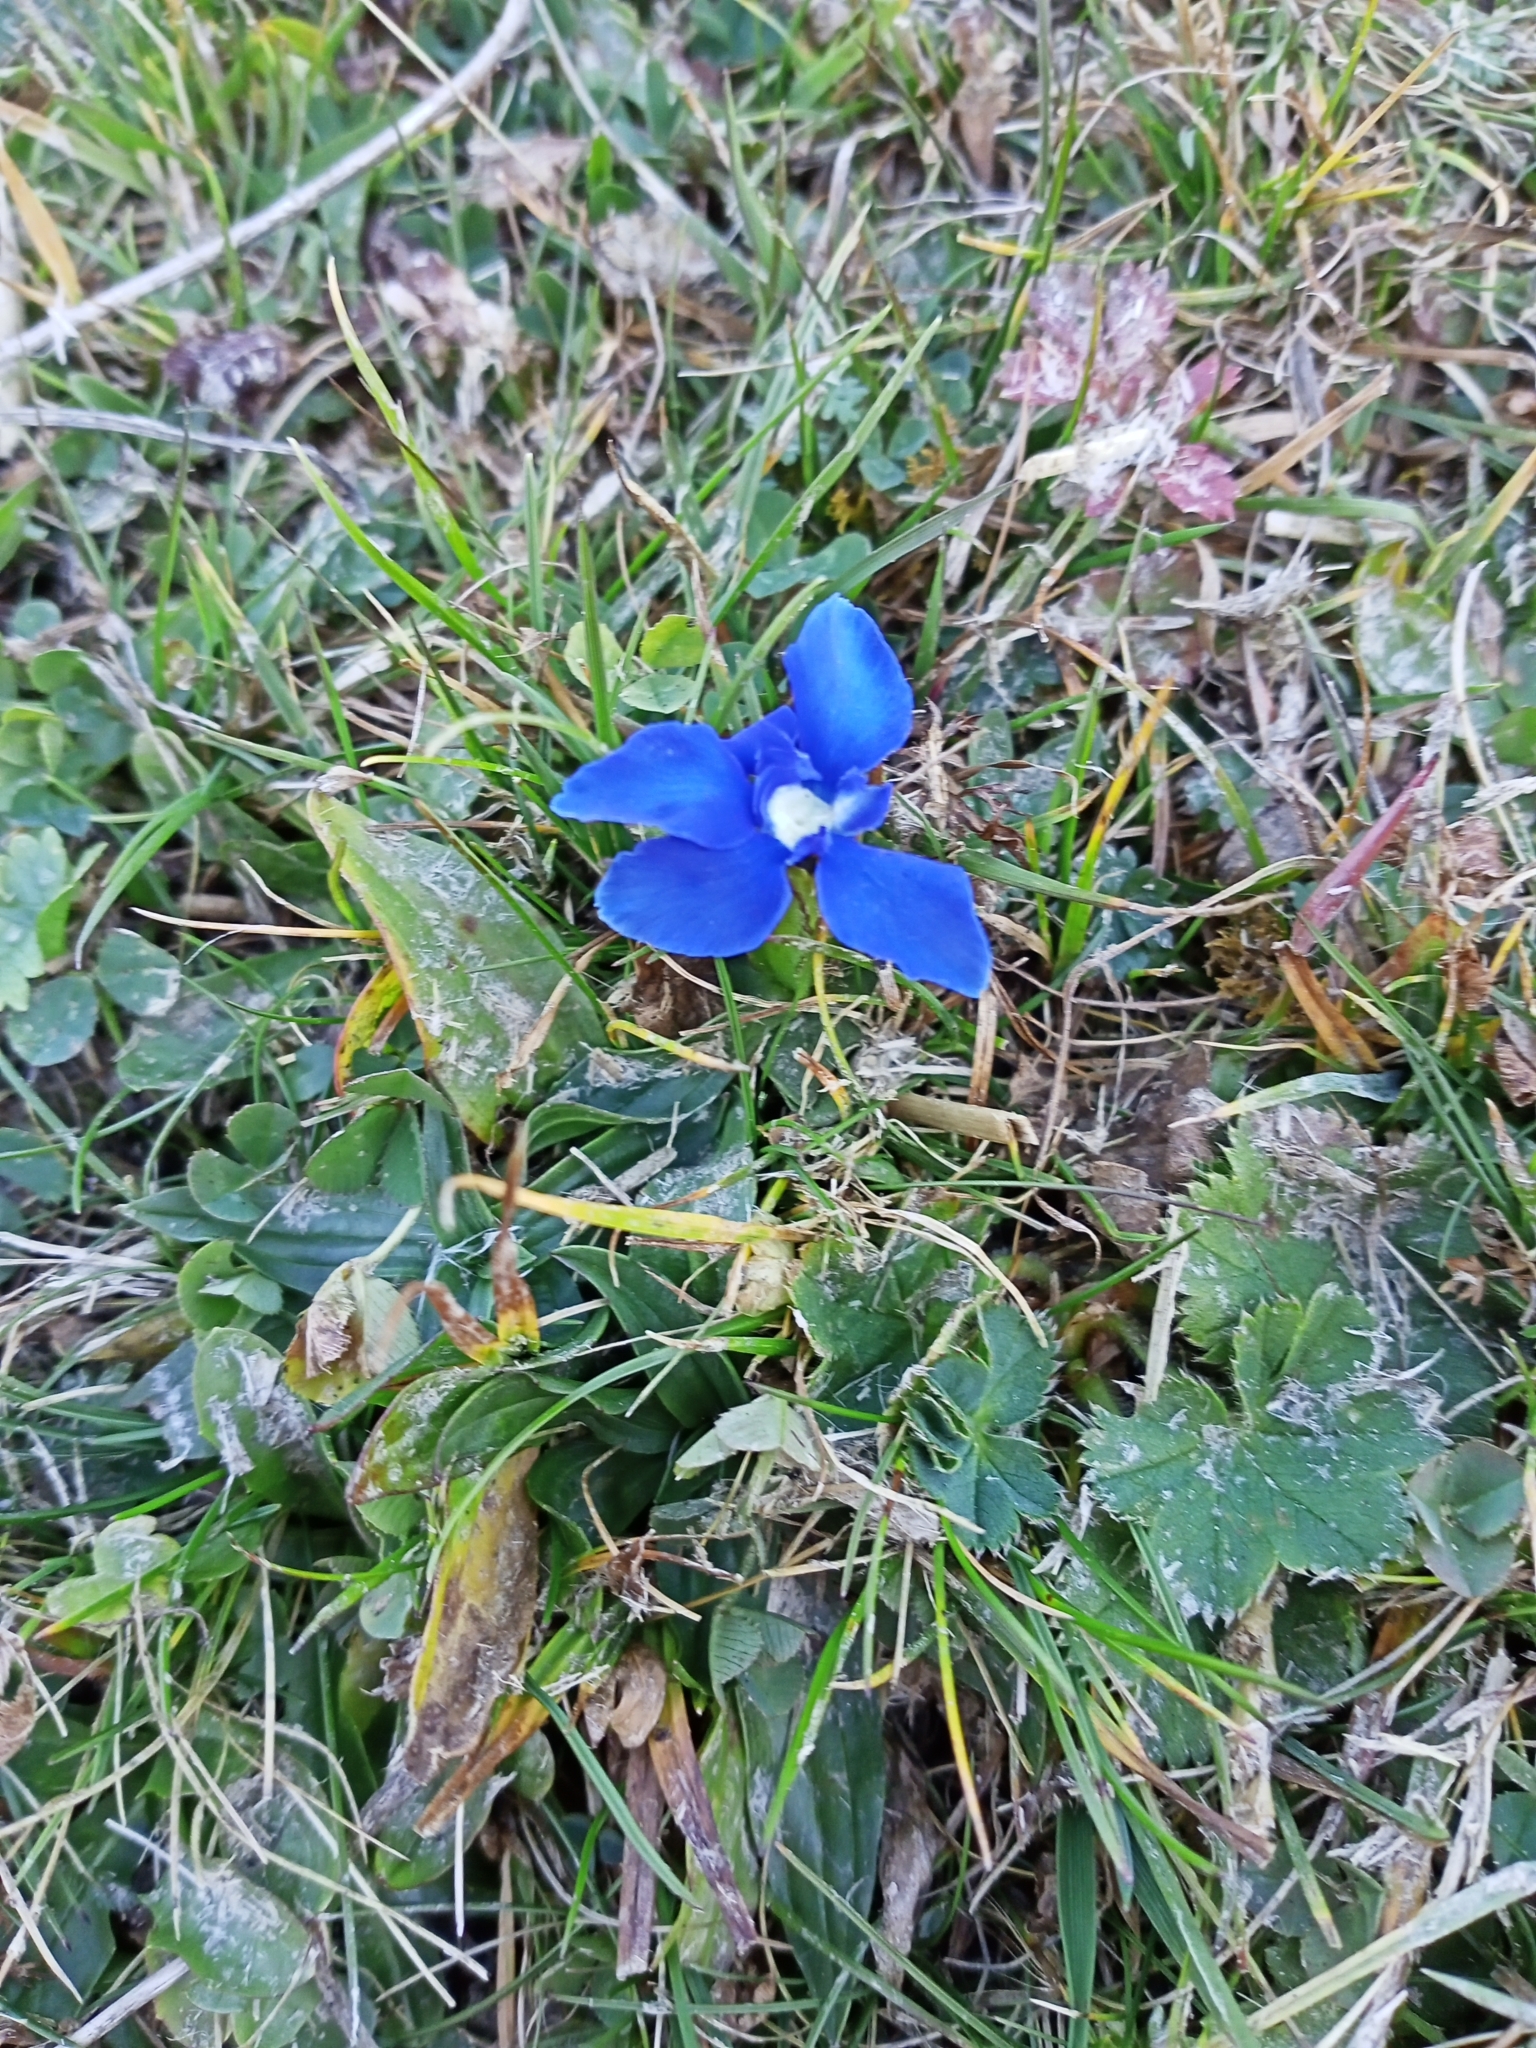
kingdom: Plantae
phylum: Tracheophyta
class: Magnoliopsida
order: Gentianales
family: Gentianaceae
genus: Gentiana
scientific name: Gentiana verna
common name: Spring gentian
